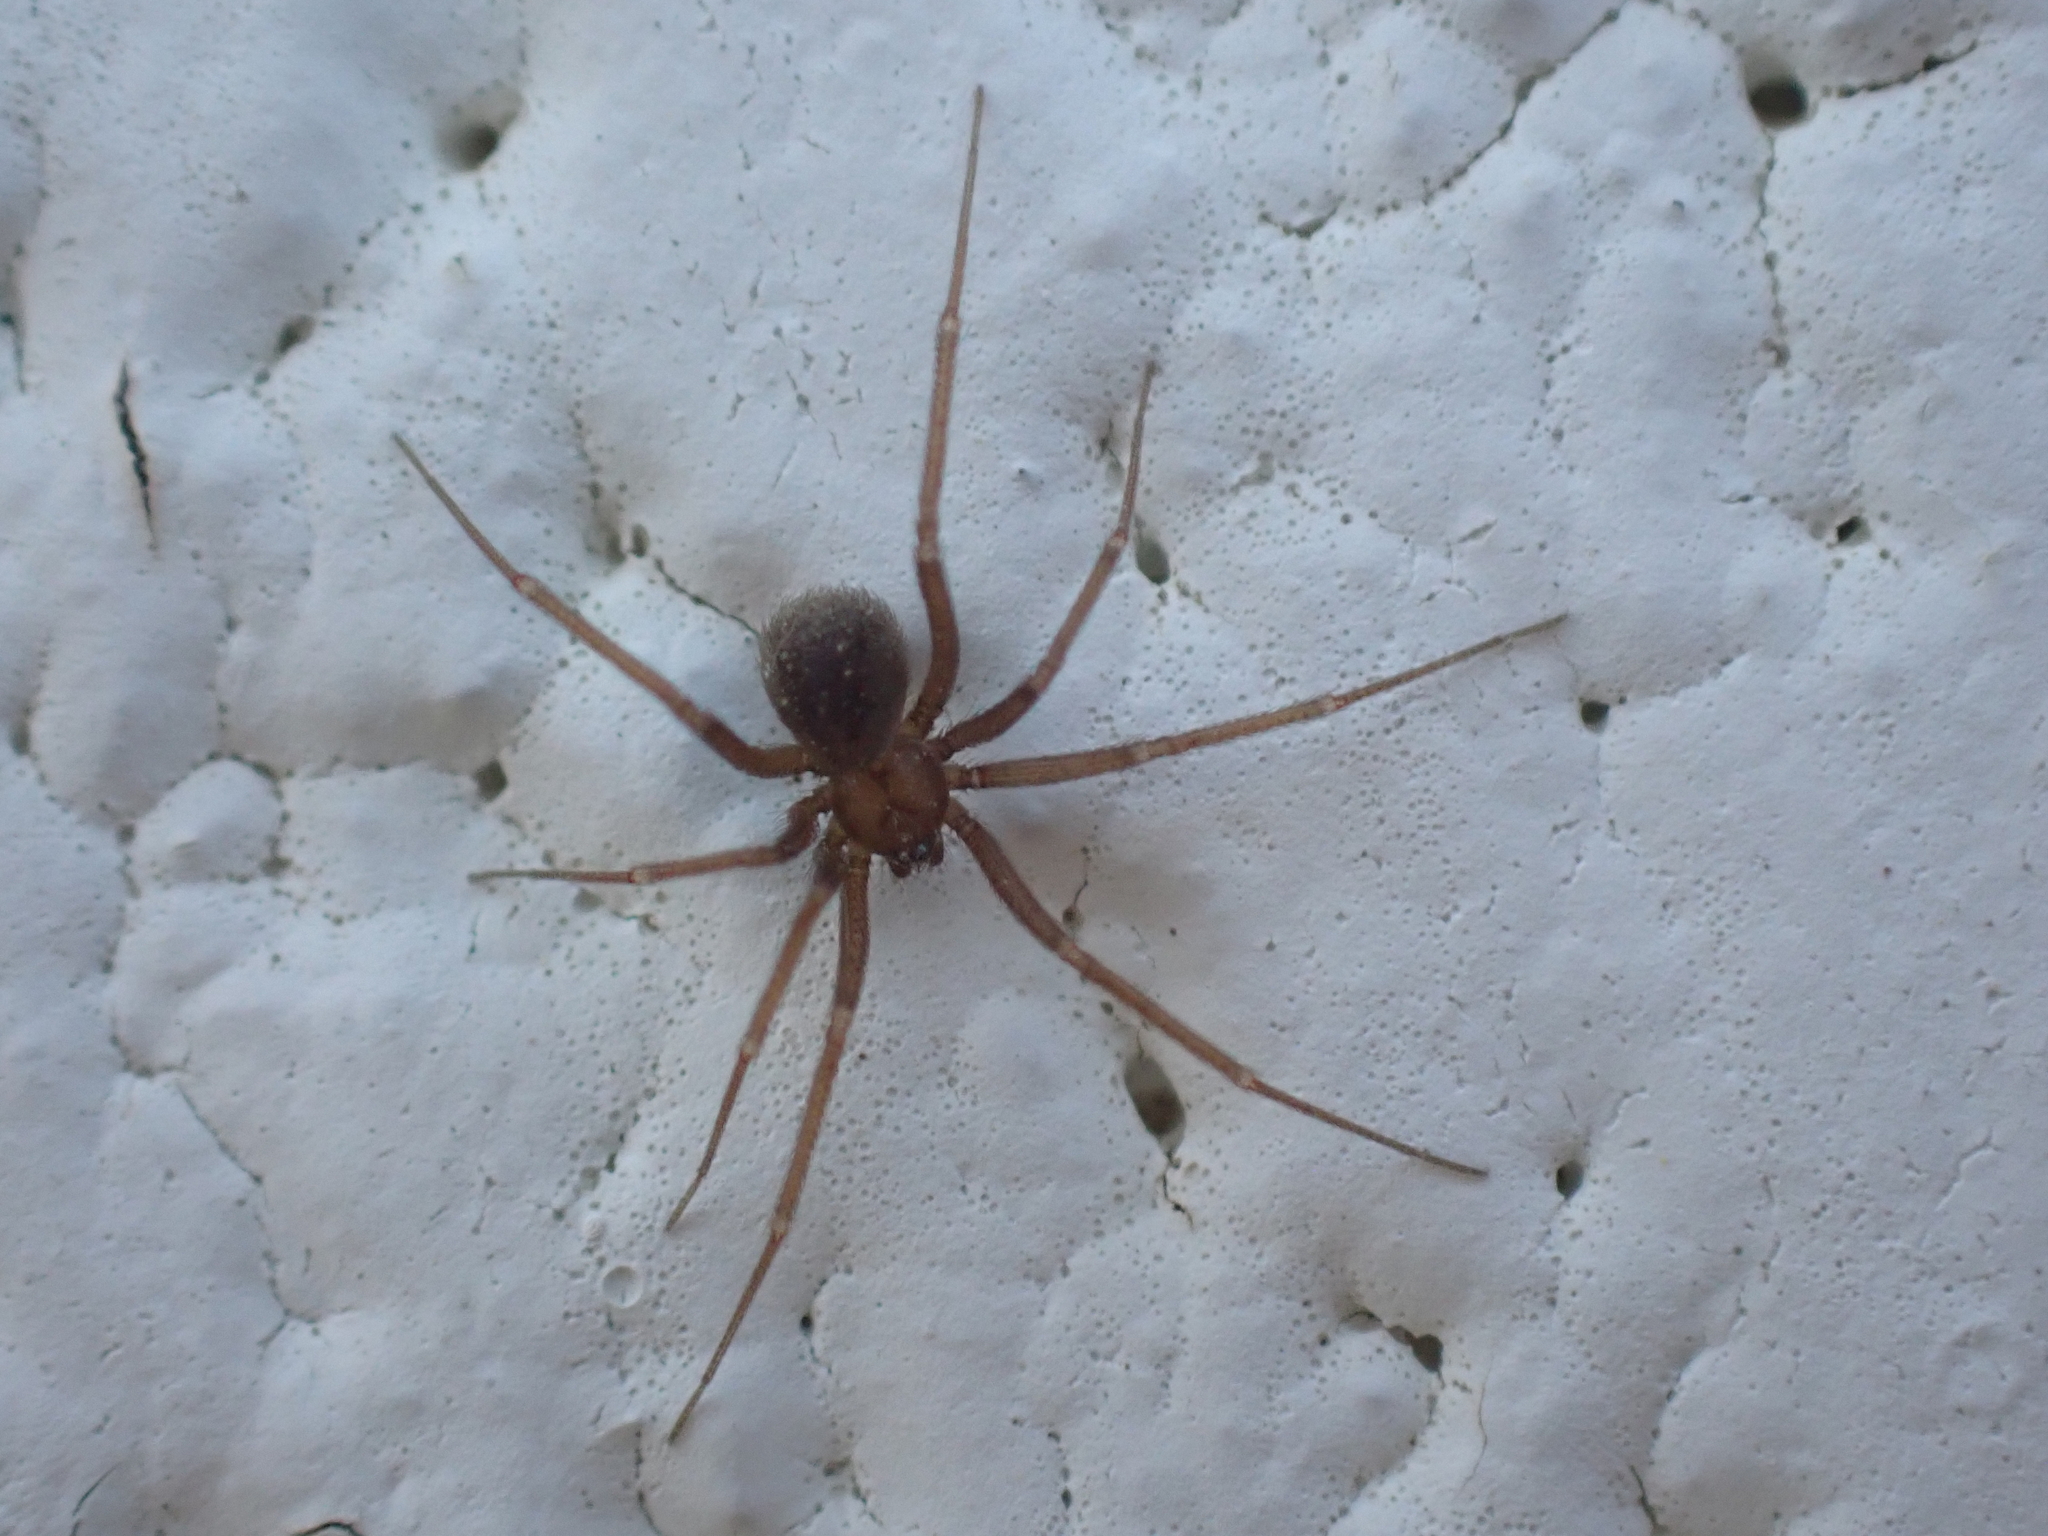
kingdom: Animalia
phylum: Arthropoda
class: Arachnida
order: Araneae
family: Pholcidae
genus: Pholcophora
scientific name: Pholcophora americana
